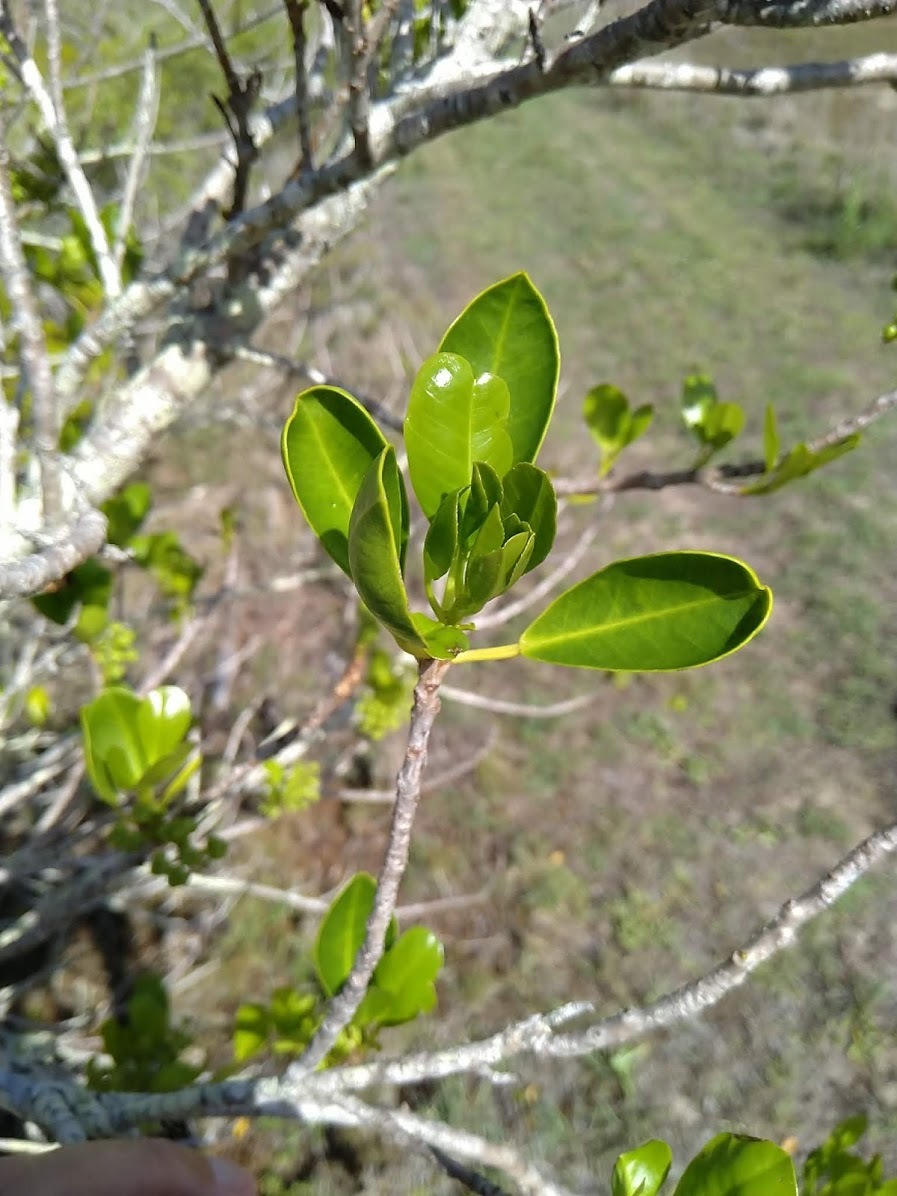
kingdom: Plantae
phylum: Tracheophyta
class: Magnoliopsida
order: Malpighiales
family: Euphorbiaceae
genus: Excoecaria
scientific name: Excoecaria agallocha
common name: River poisontree
